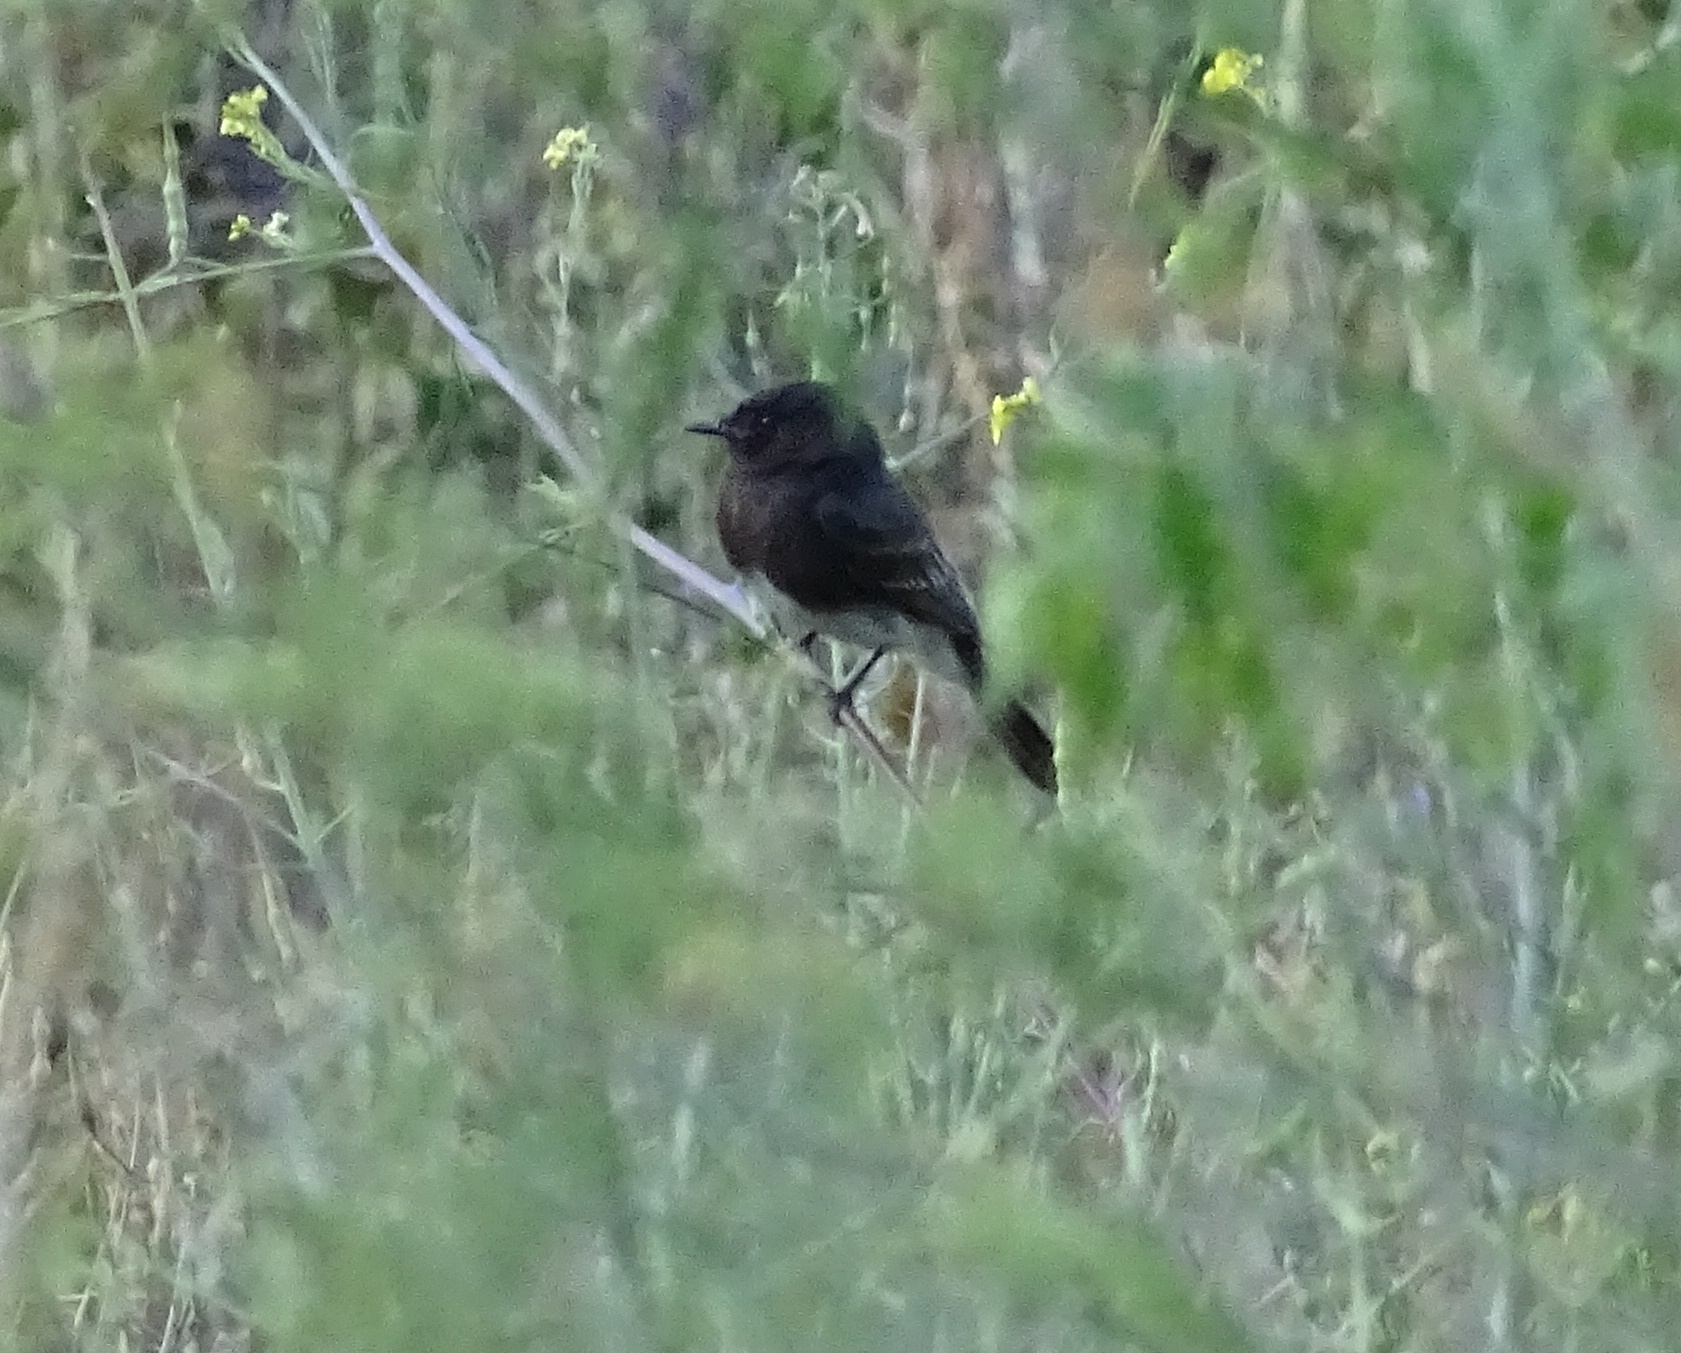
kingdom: Animalia
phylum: Chordata
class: Aves
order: Passeriformes
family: Tyrannidae
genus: Sayornis
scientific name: Sayornis nigricans
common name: Black phoebe
